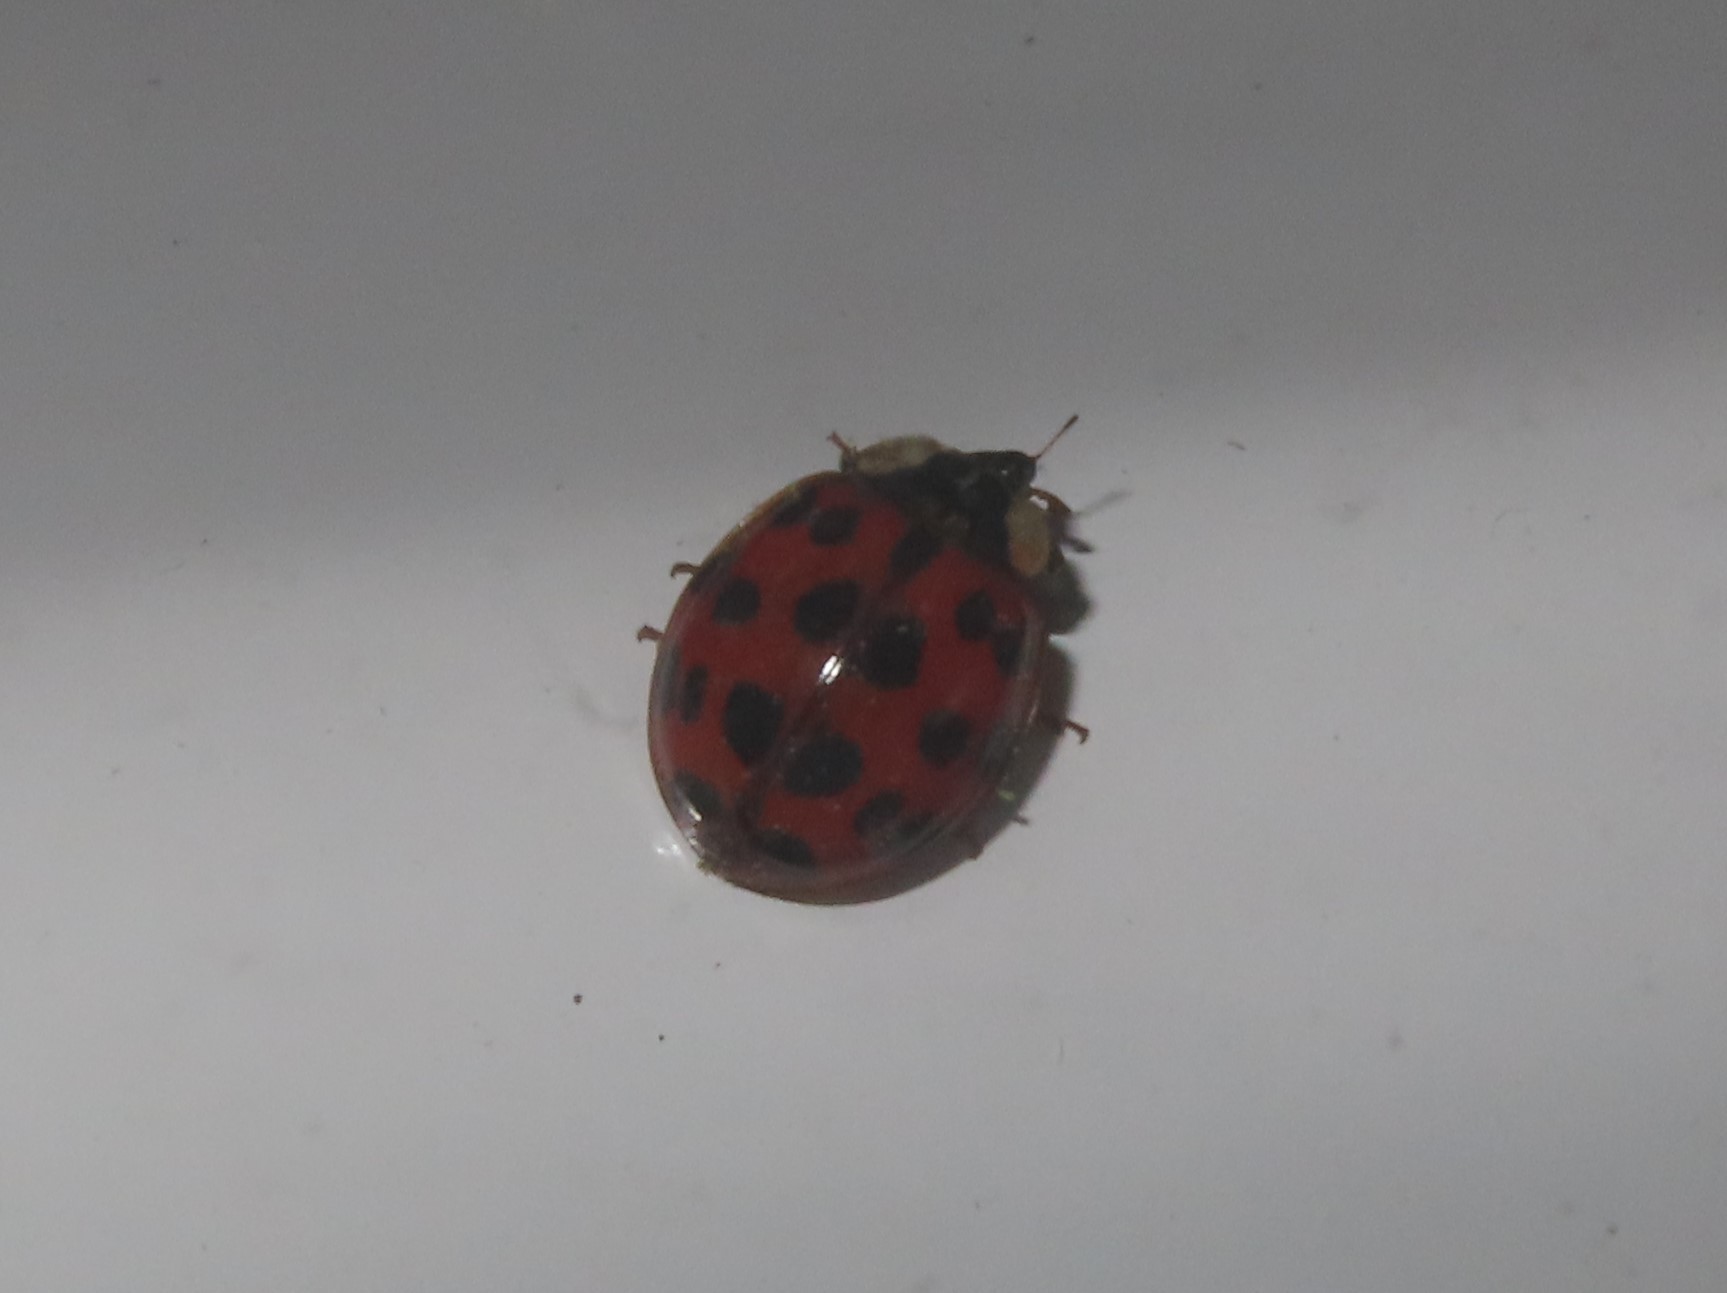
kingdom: Animalia
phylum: Arthropoda
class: Insecta
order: Coleoptera
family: Coccinellidae
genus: Harmonia
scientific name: Harmonia axyridis
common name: Harlequin ladybird
